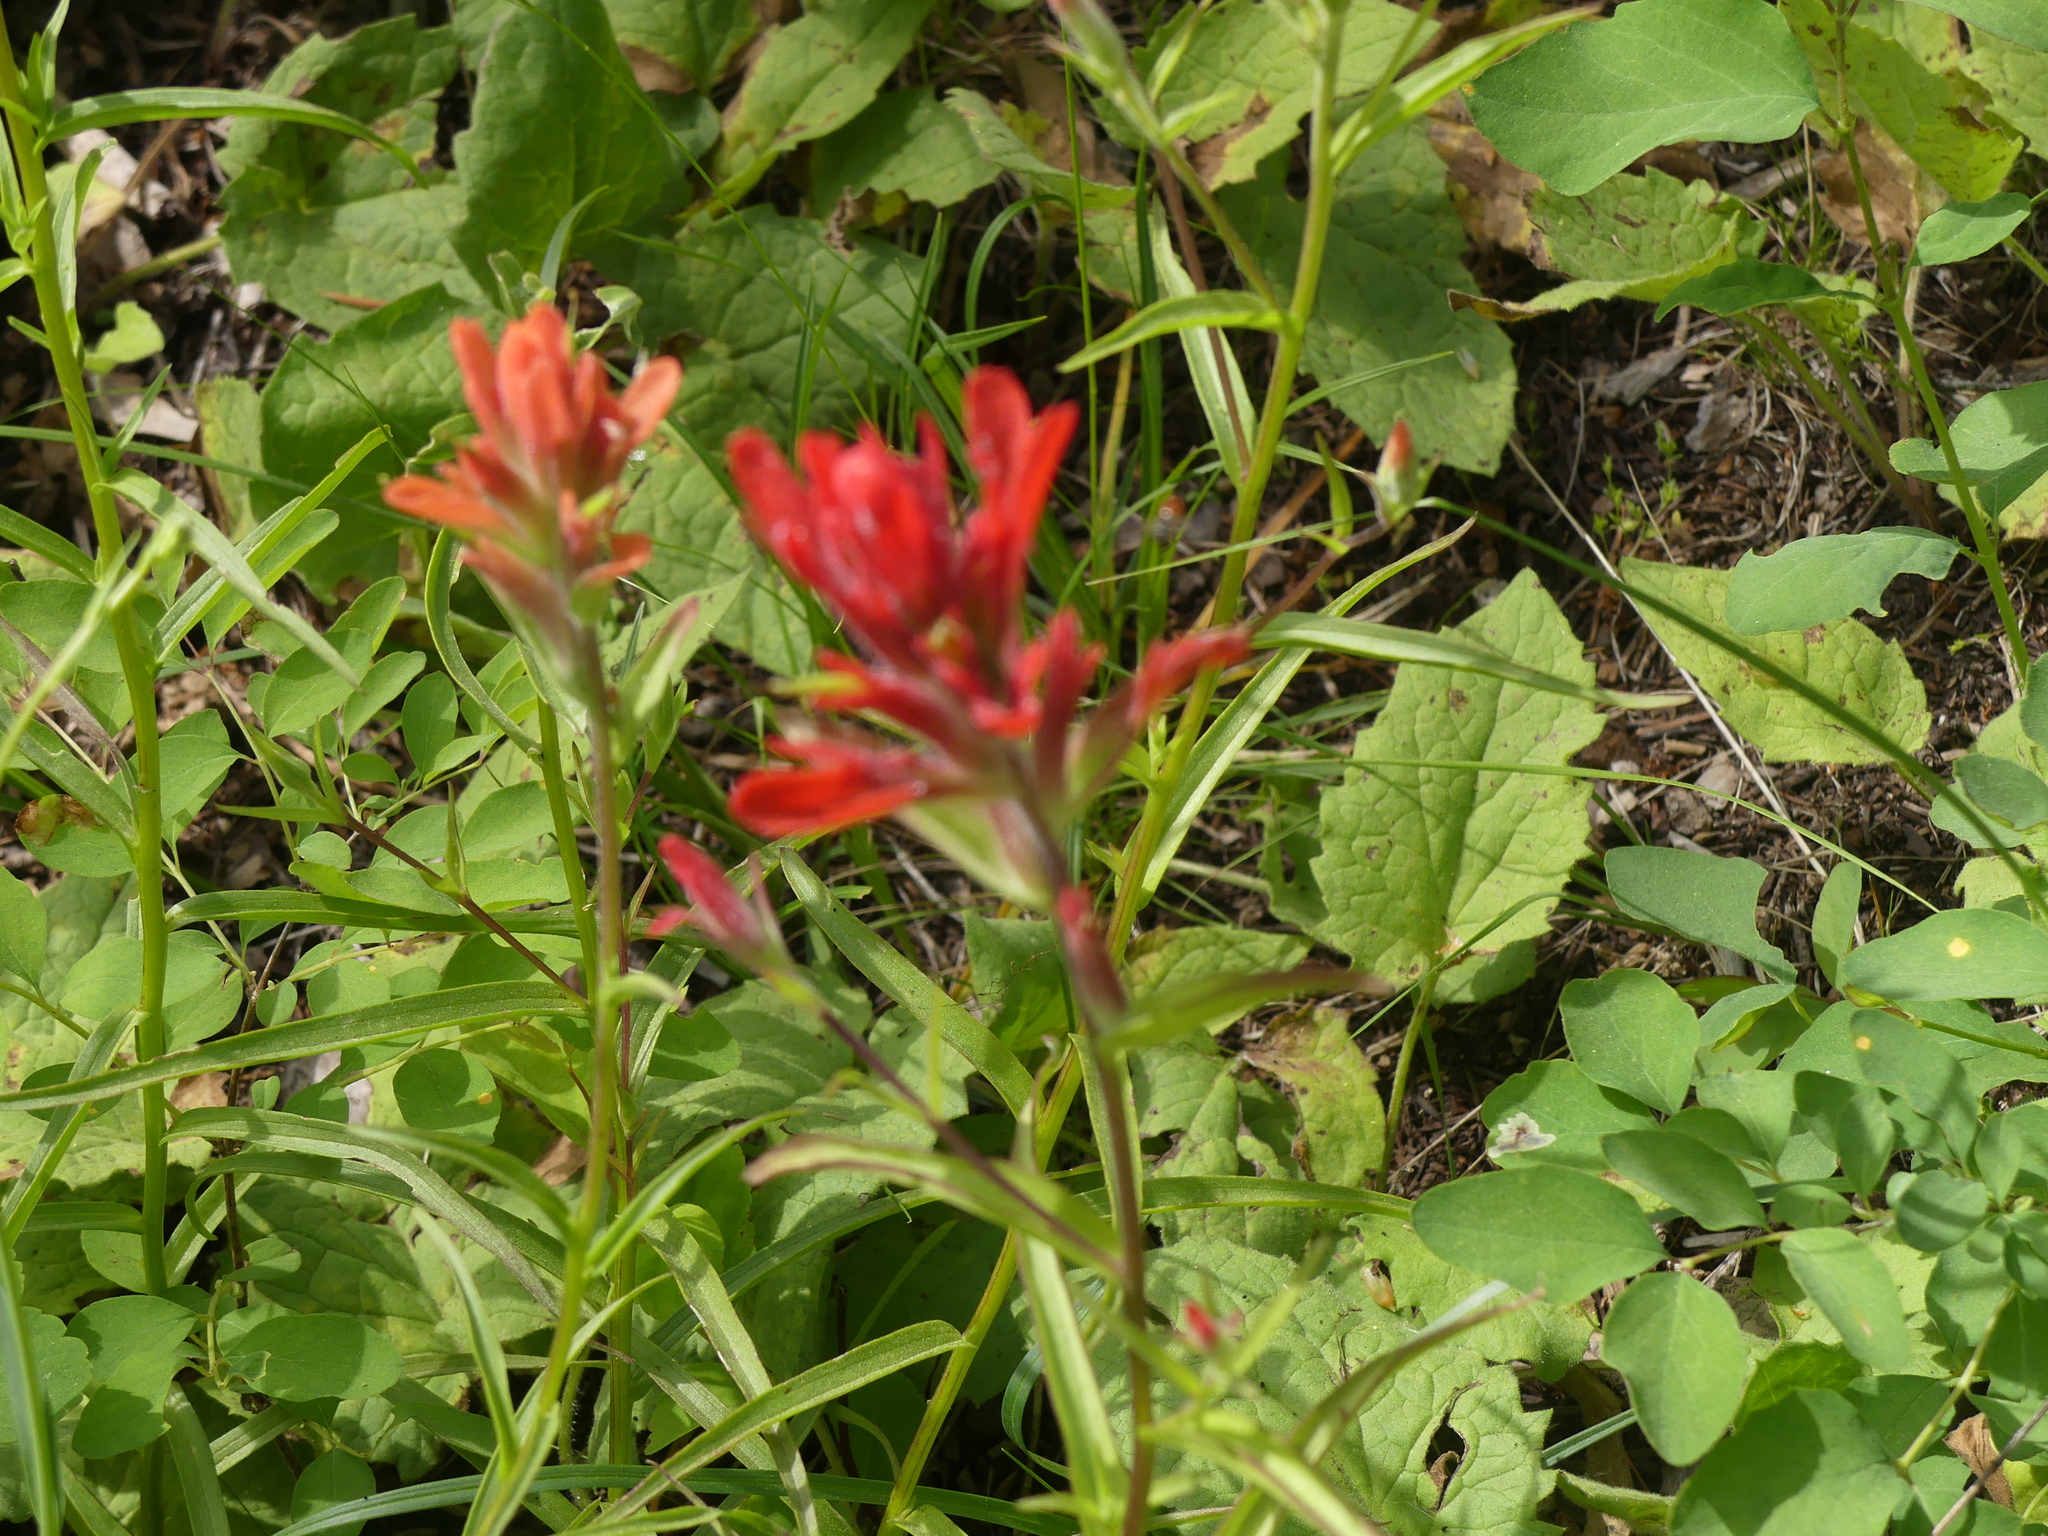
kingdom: Plantae
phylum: Tracheophyta
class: Magnoliopsida
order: Lamiales
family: Orobanchaceae
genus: Castilleja
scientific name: Castilleja miniata
